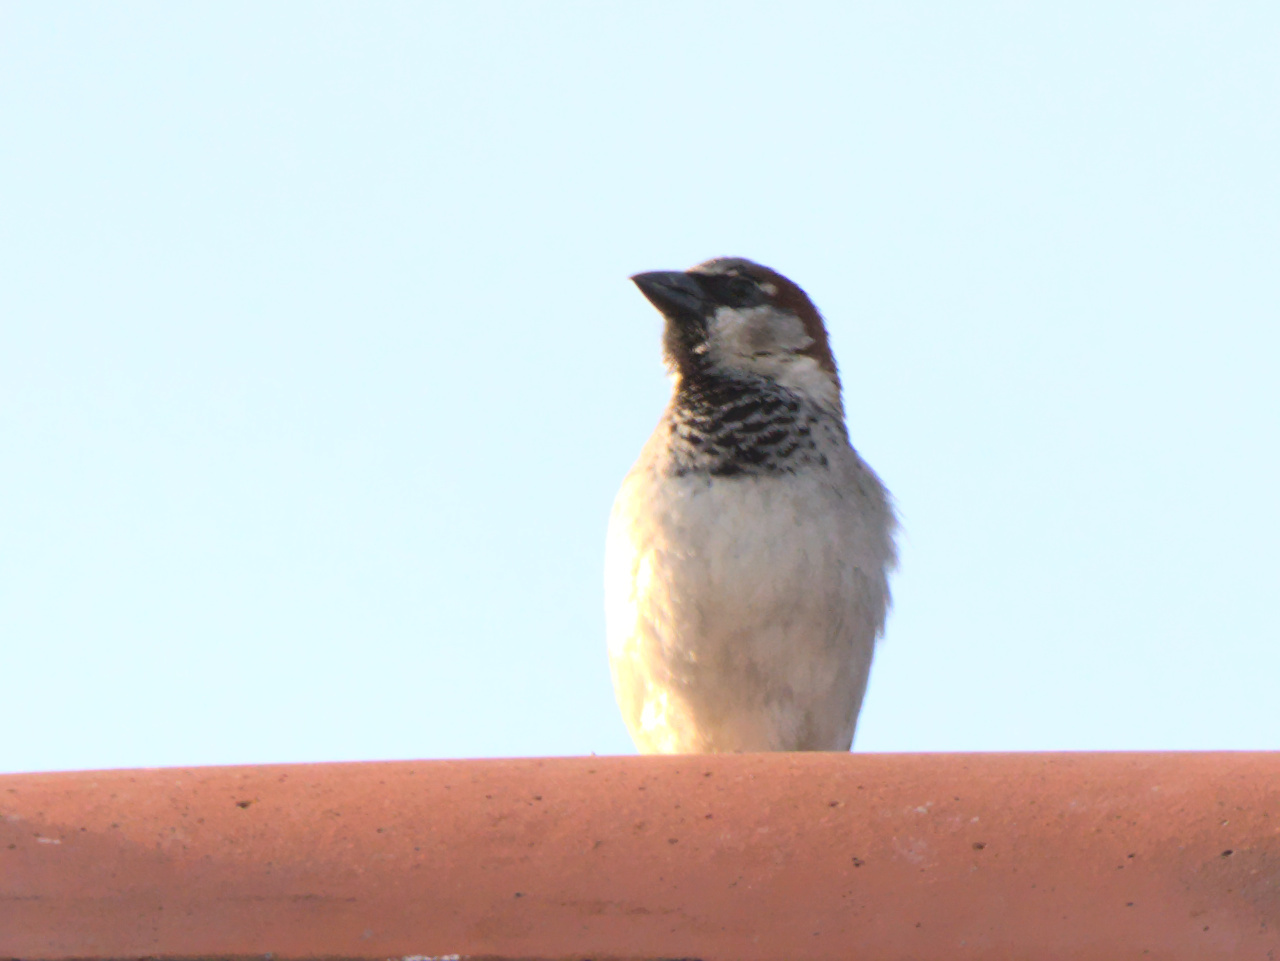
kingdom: Animalia
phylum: Chordata
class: Aves
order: Passeriformes
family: Passeridae
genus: Passer
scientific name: Passer domesticus
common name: House sparrow
